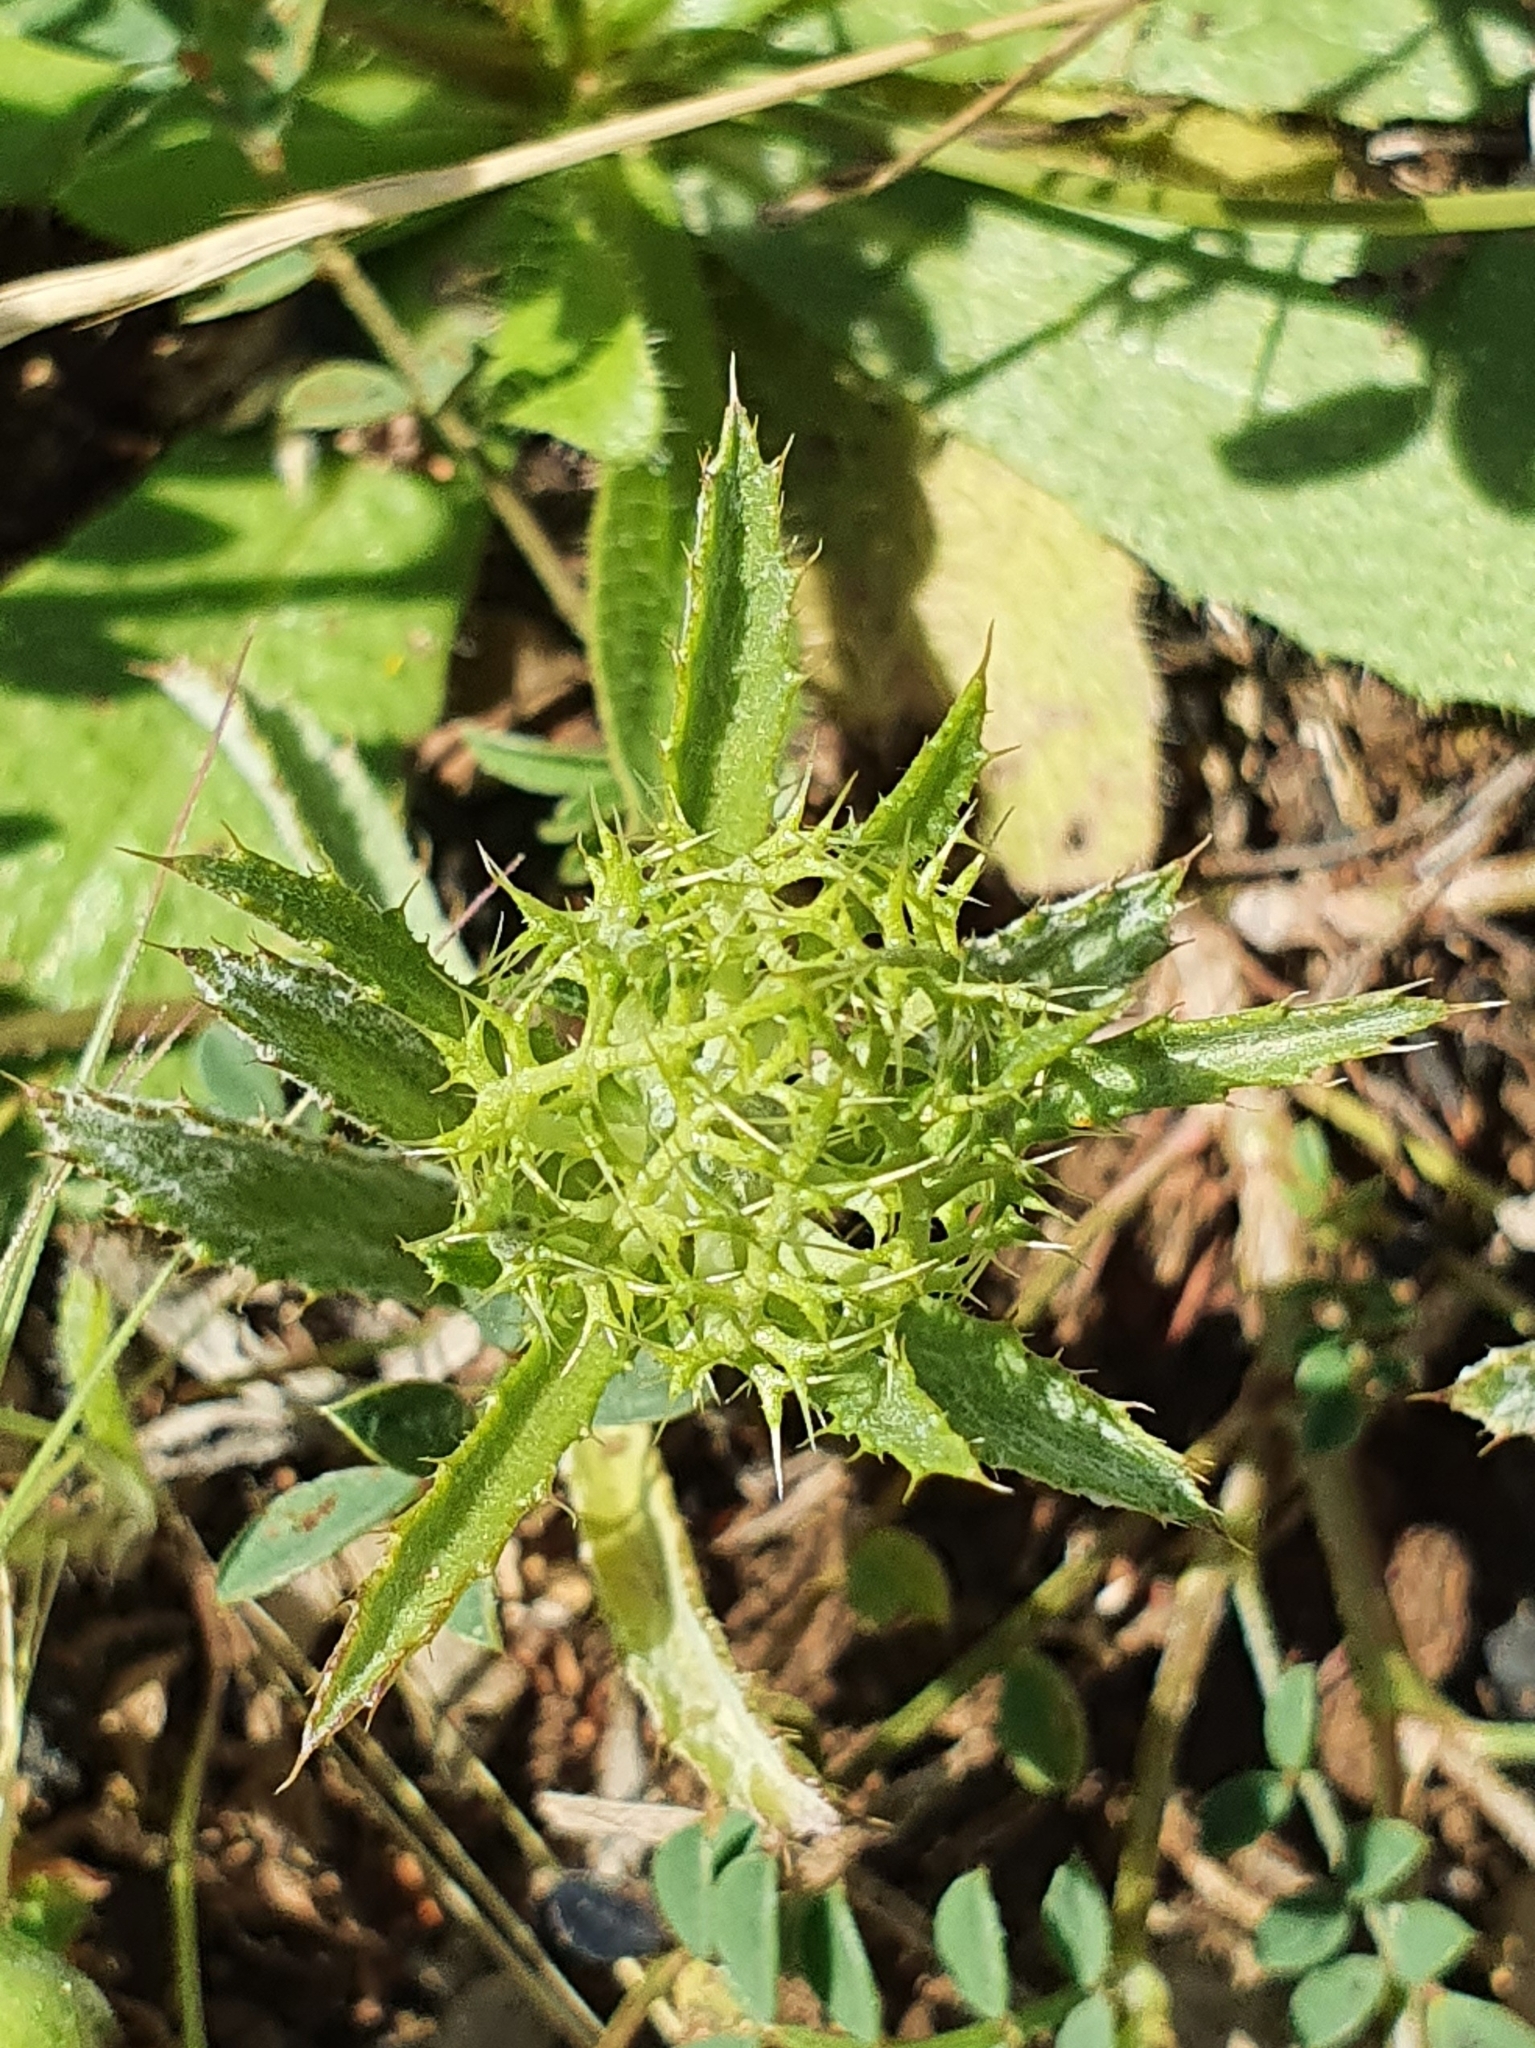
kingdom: Plantae
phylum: Tracheophyta
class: Magnoliopsida
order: Asterales
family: Asteraceae
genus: Atractylis
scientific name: Atractylis cancellata
